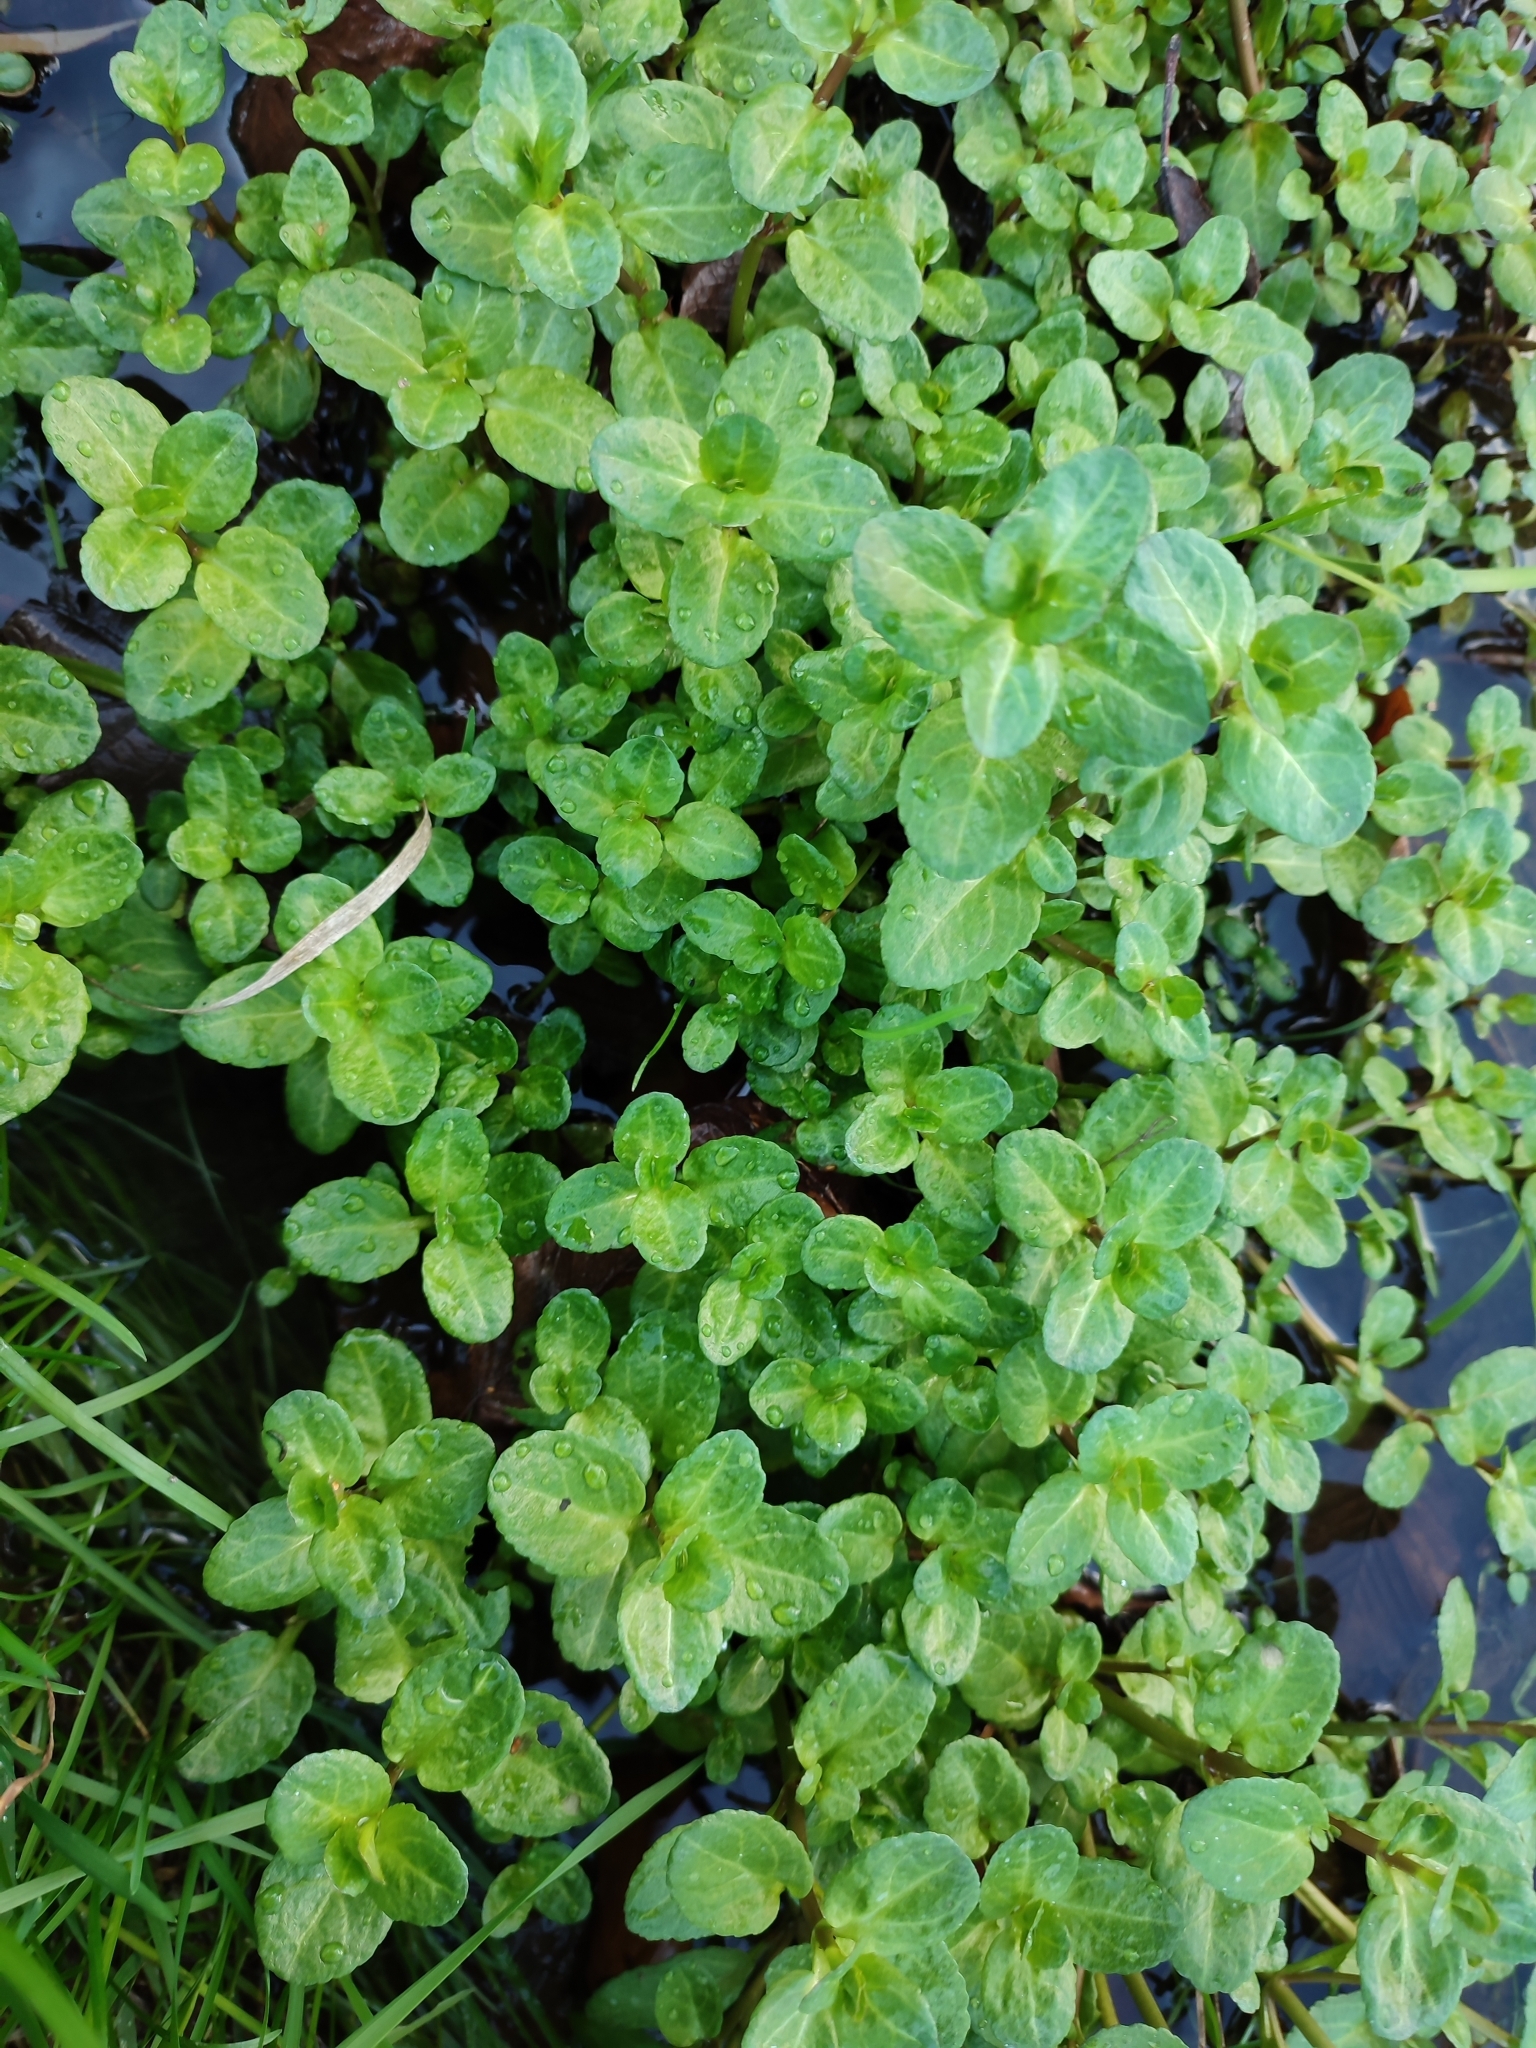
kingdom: Plantae
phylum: Tracheophyta
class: Magnoliopsida
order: Lamiales
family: Plantaginaceae
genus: Veronica
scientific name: Veronica beccabunga
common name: Brooklime
